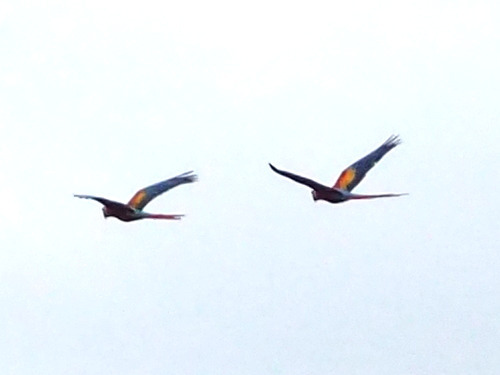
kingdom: Animalia
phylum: Chordata
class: Aves
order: Psittaciformes
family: Psittacidae
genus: Ara
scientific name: Ara macao
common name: Scarlet macaw
